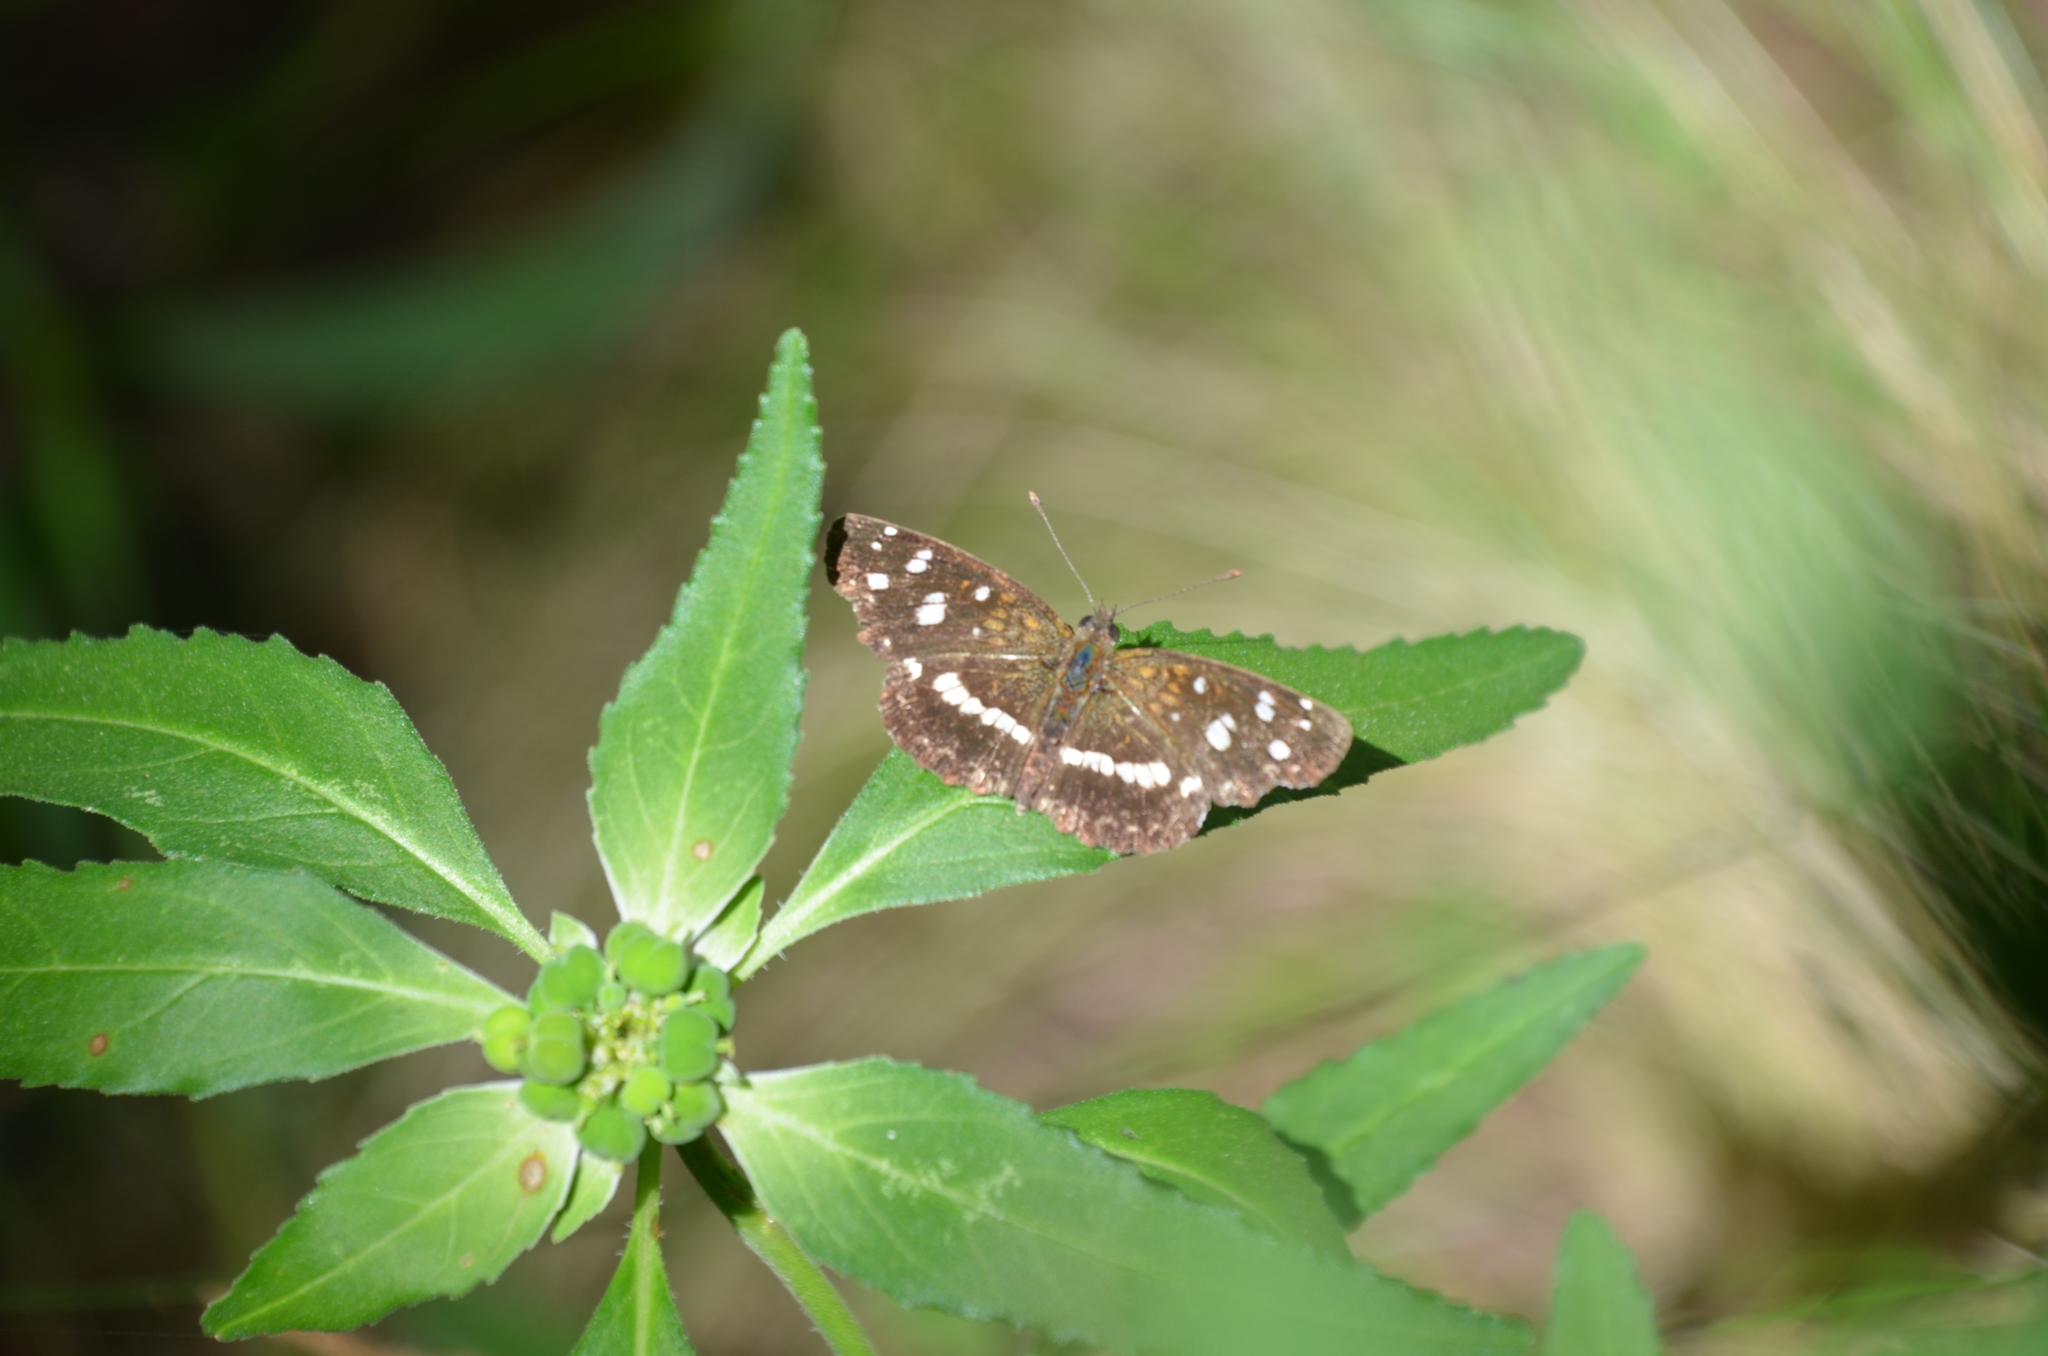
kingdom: Animalia
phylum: Arthropoda
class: Insecta
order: Lepidoptera
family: Nymphalidae
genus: Ortilia
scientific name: Ortilia ithra
